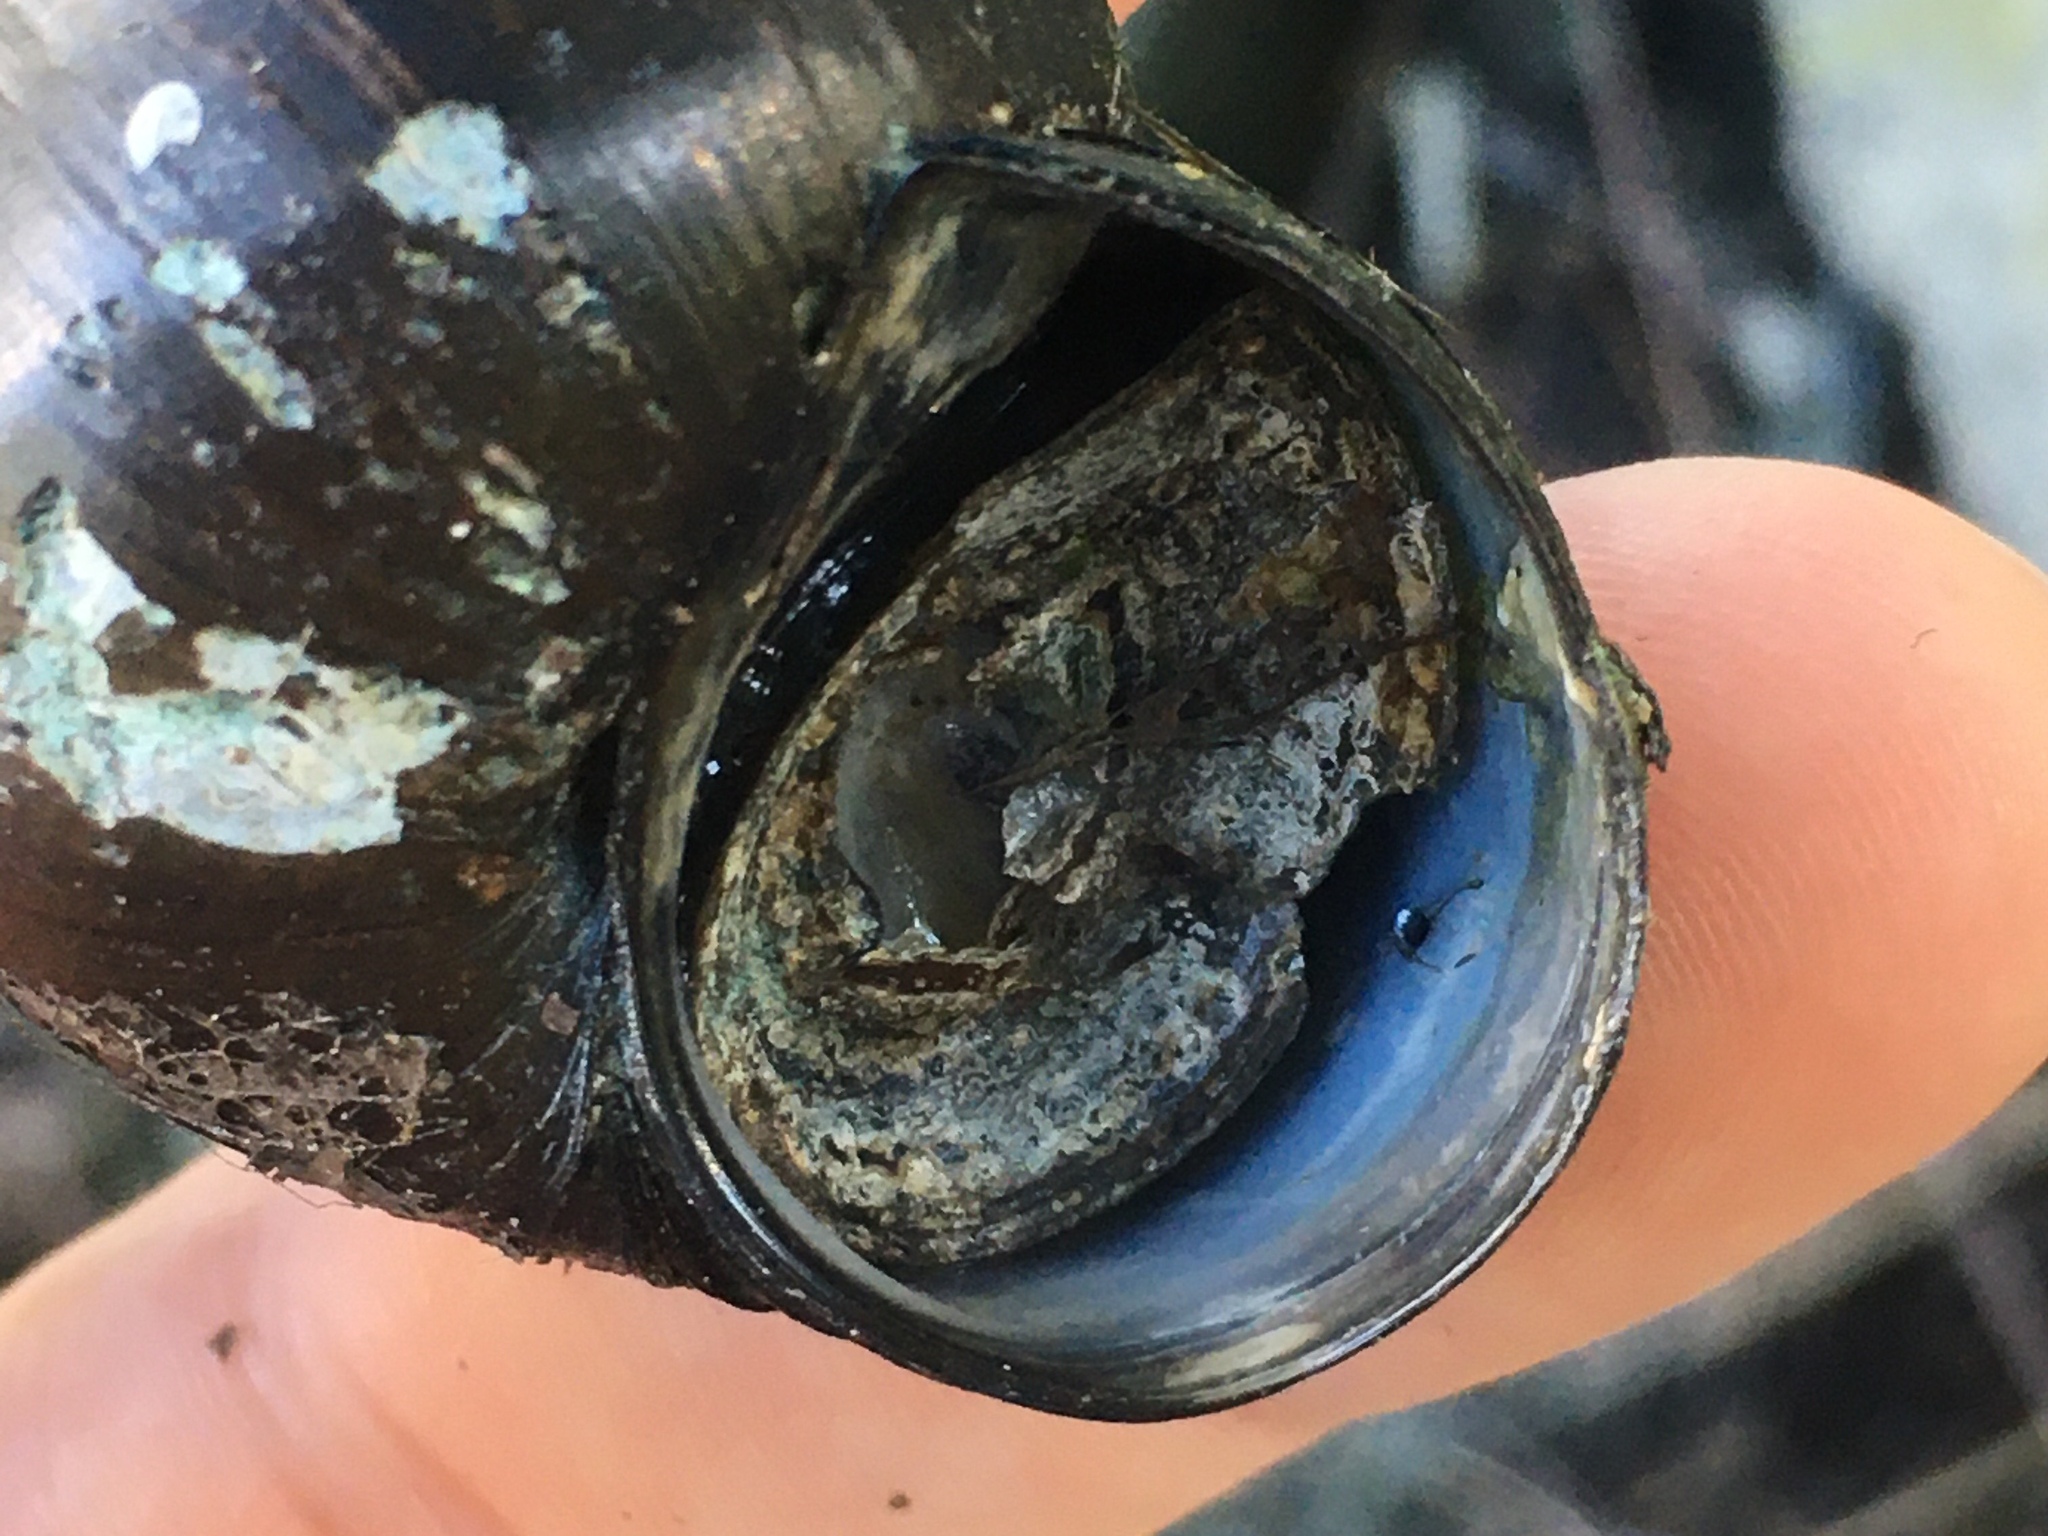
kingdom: Animalia
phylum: Mollusca
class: Gastropoda
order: Architaenioglossa
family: Viviparidae
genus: Cipangopaludina
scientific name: Cipangopaludina chinensis
